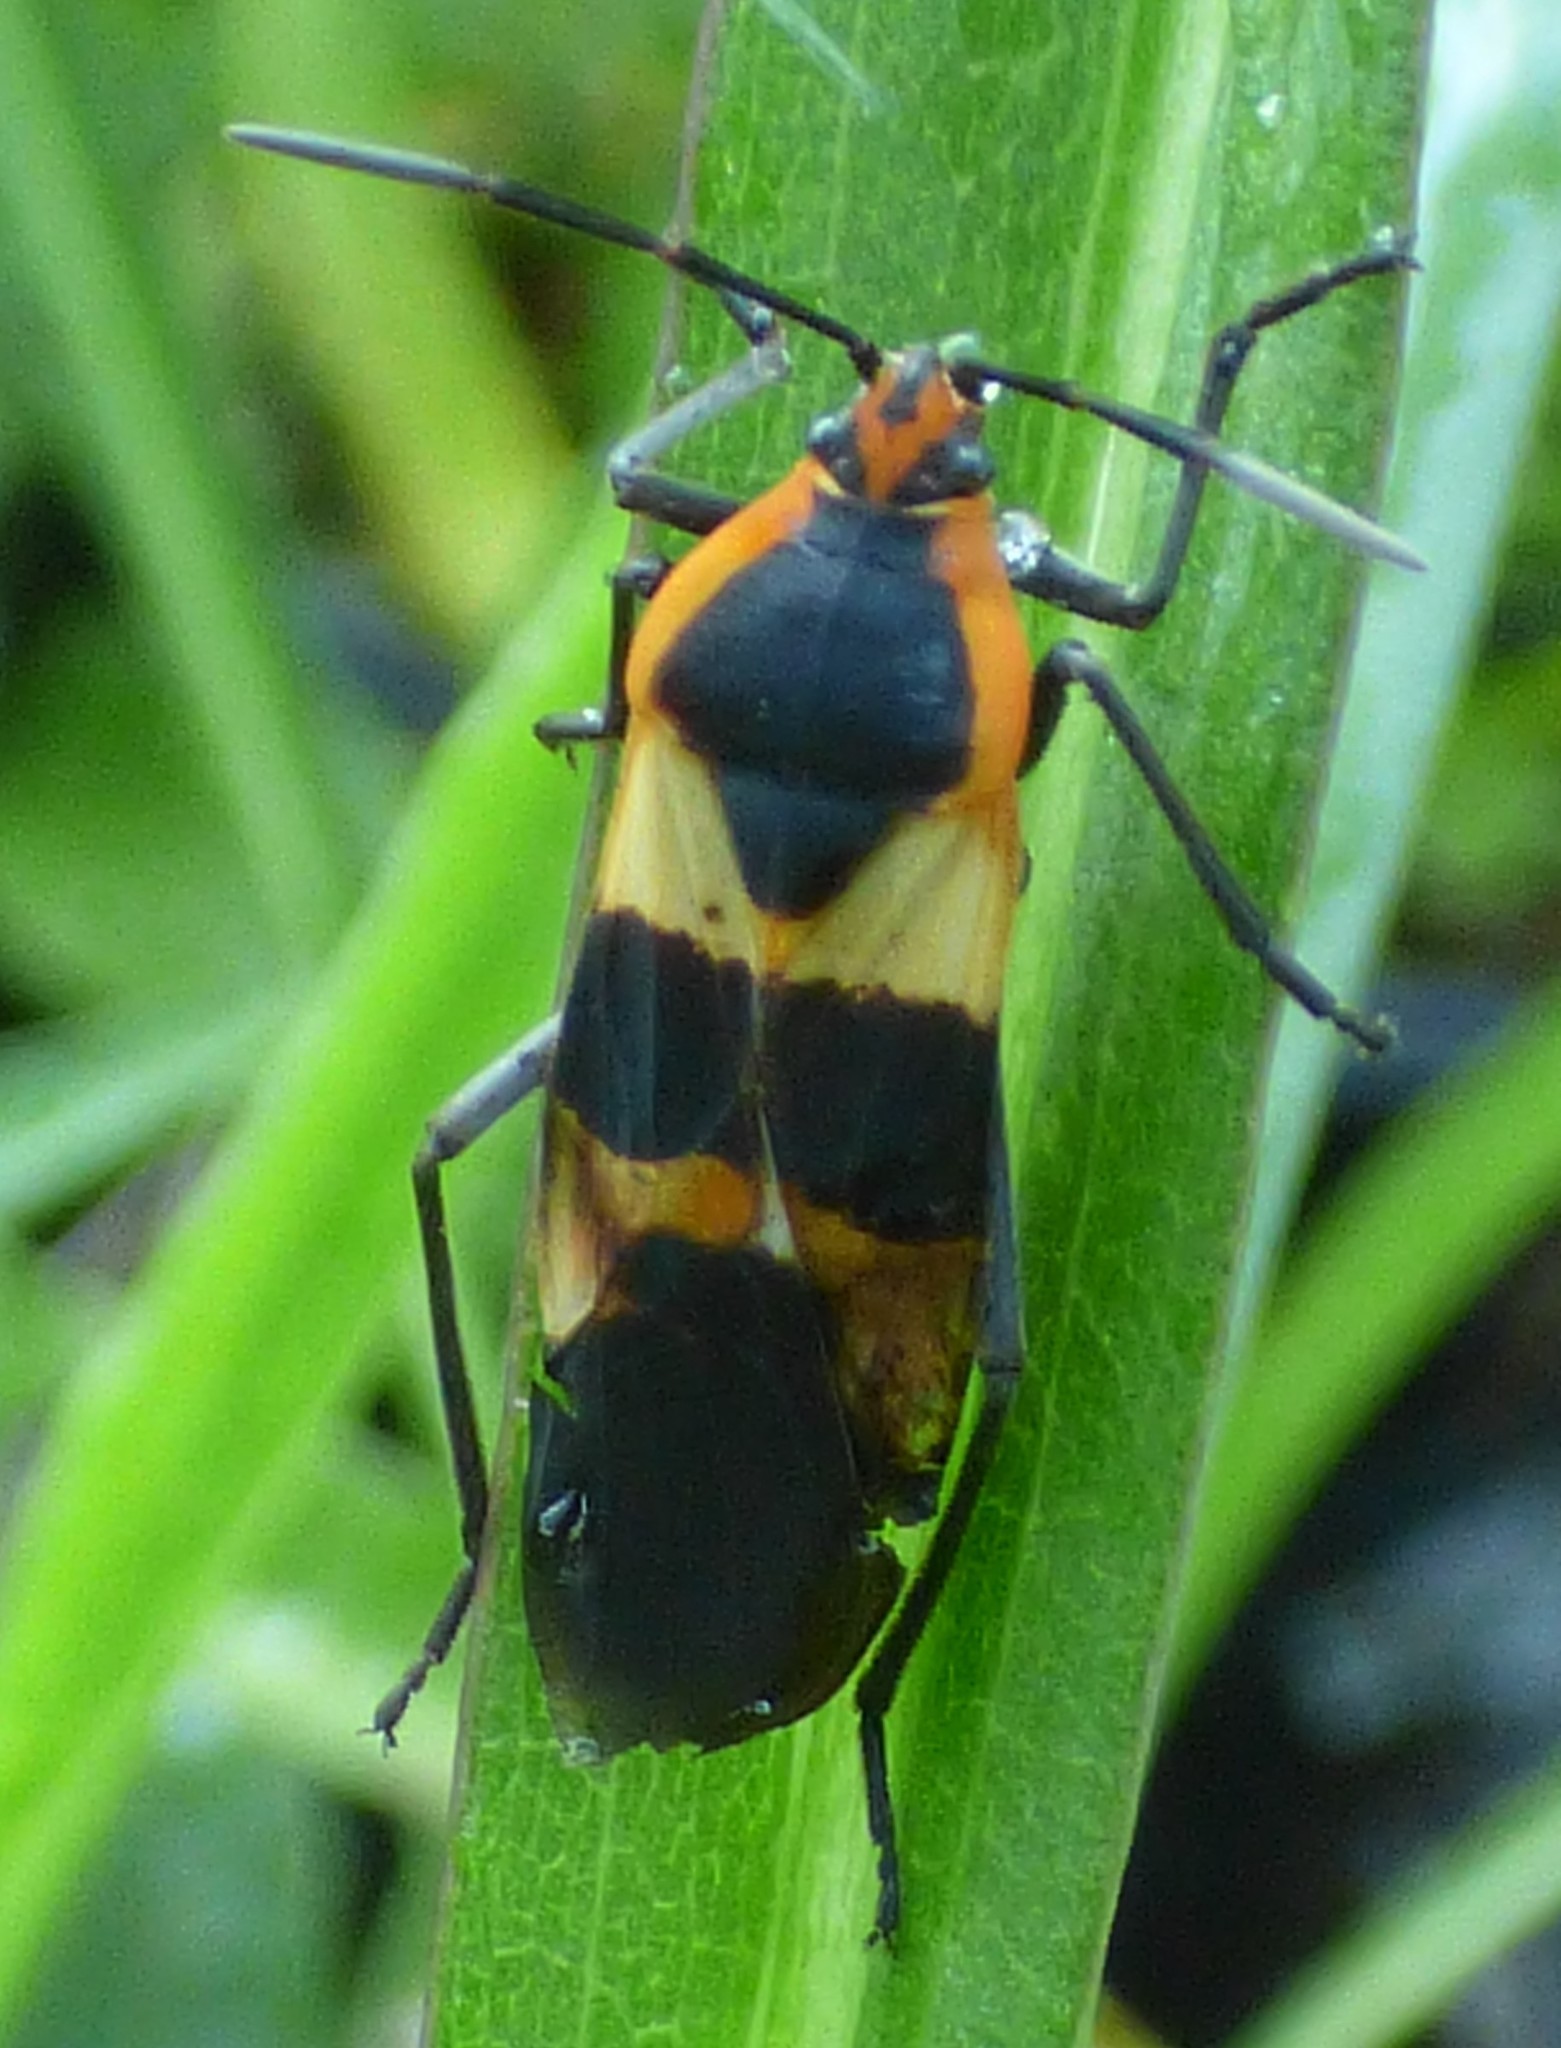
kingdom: Animalia
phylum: Arthropoda
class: Insecta
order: Hemiptera
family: Lygaeidae
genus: Oncopeltus
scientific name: Oncopeltus fasciatus
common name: Large milkweed bug
